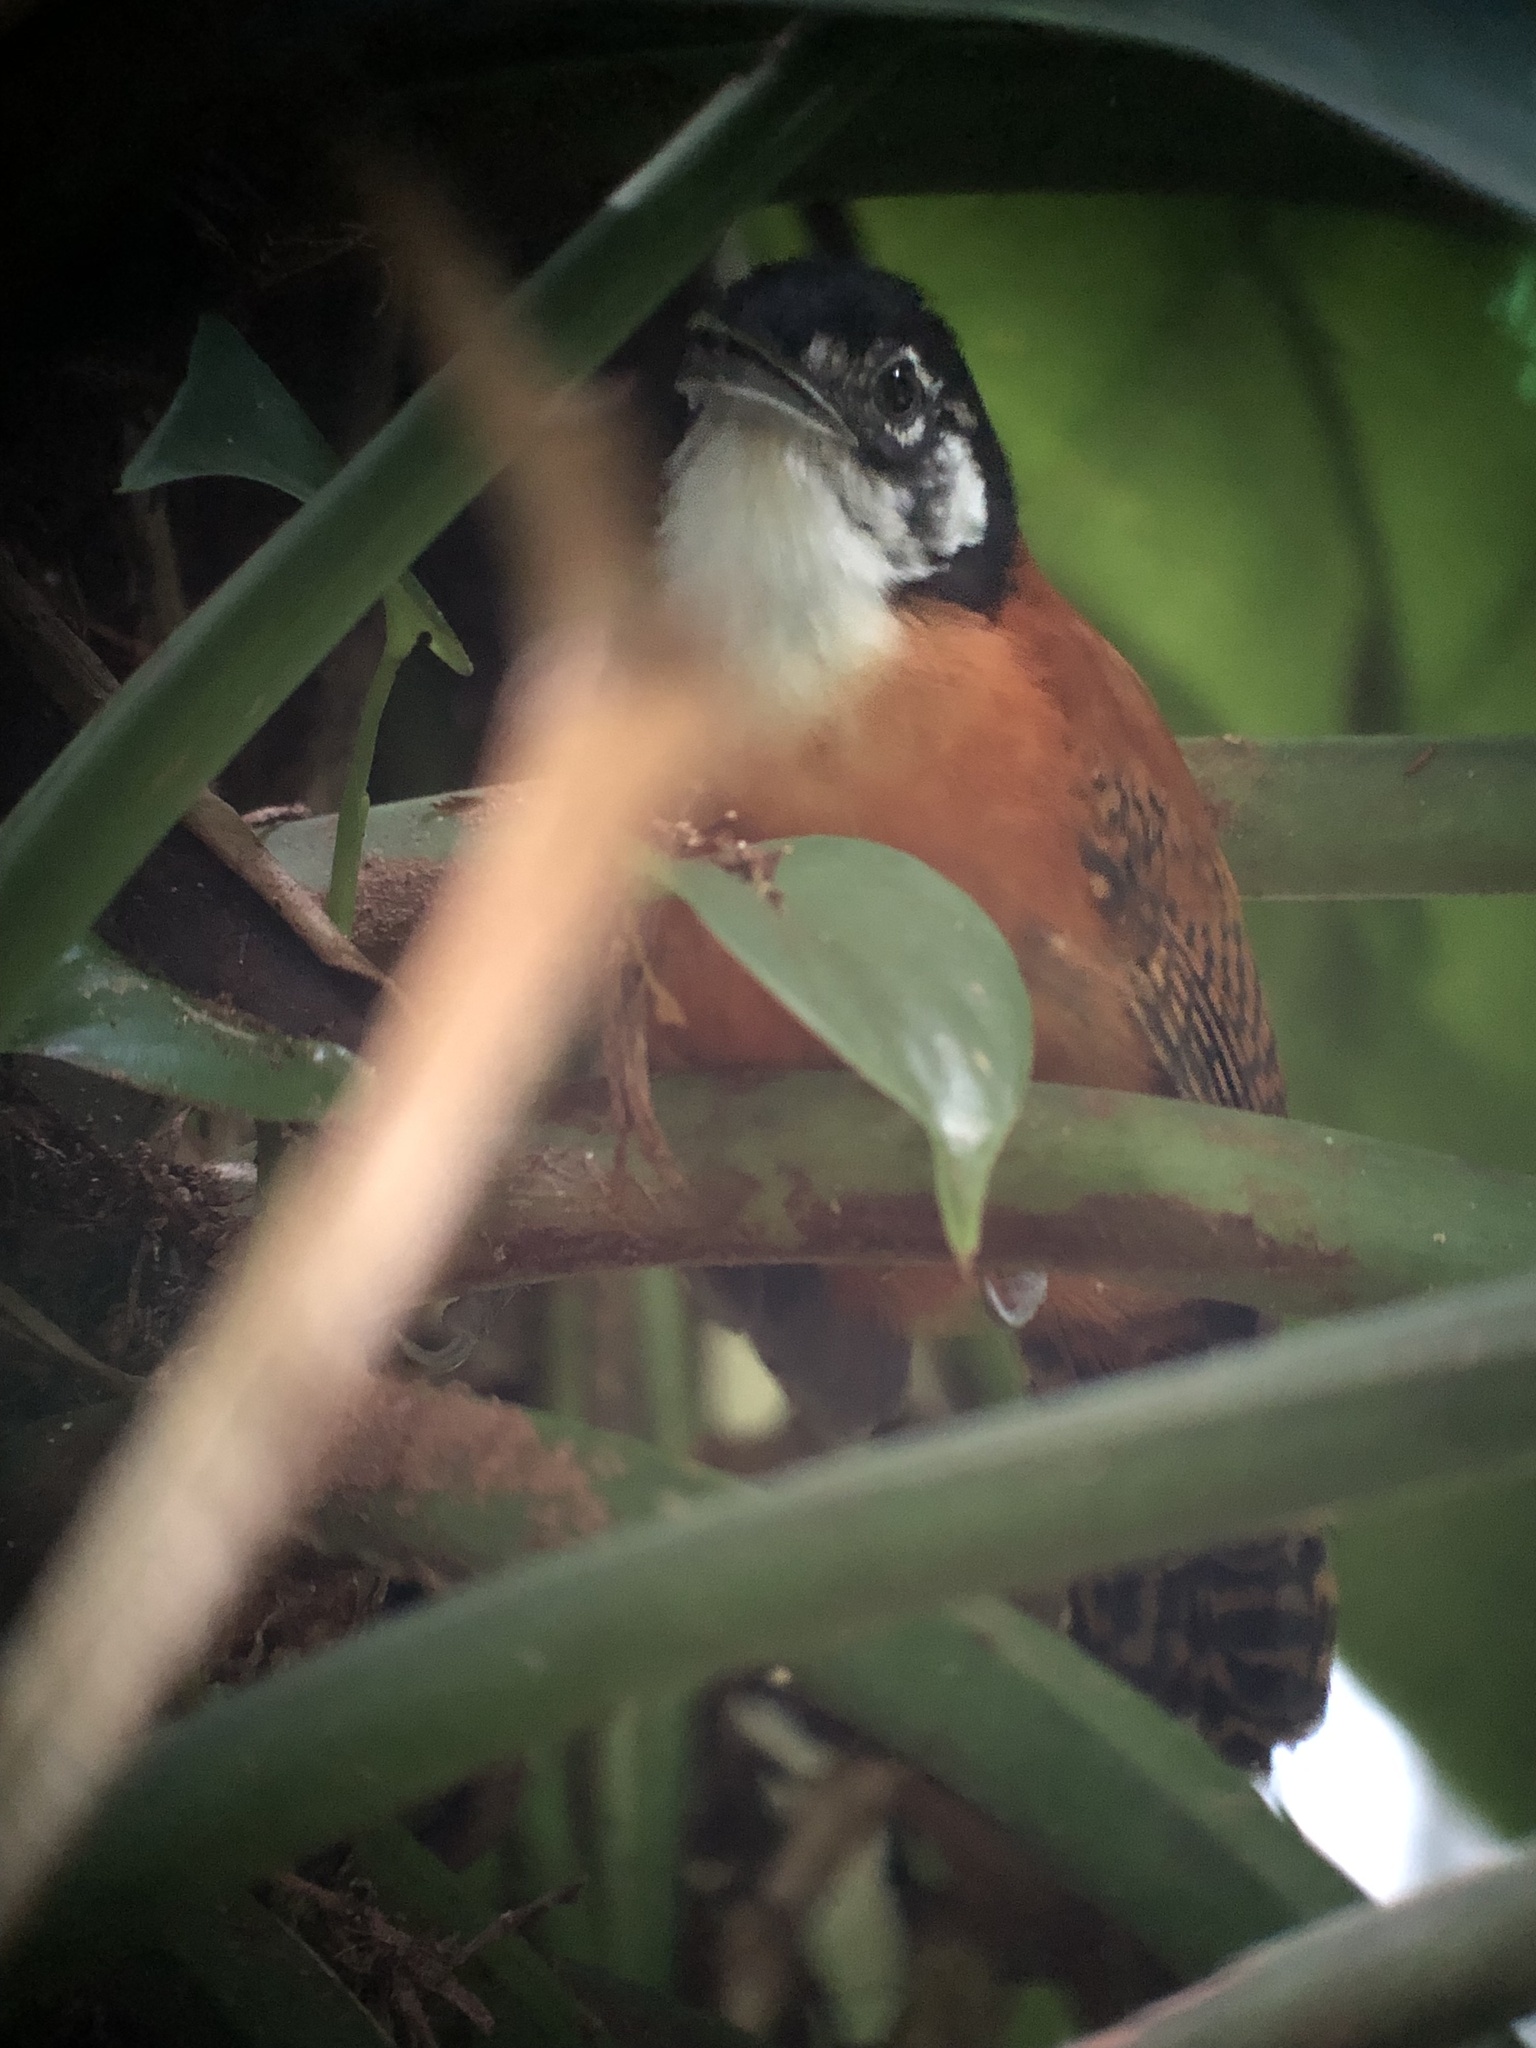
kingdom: Animalia
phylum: Chordata
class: Aves
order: Passeriformes
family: Troglodytidae
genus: Cantorchilus
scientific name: Cantorchilus nigricapillus
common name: Bay wren
